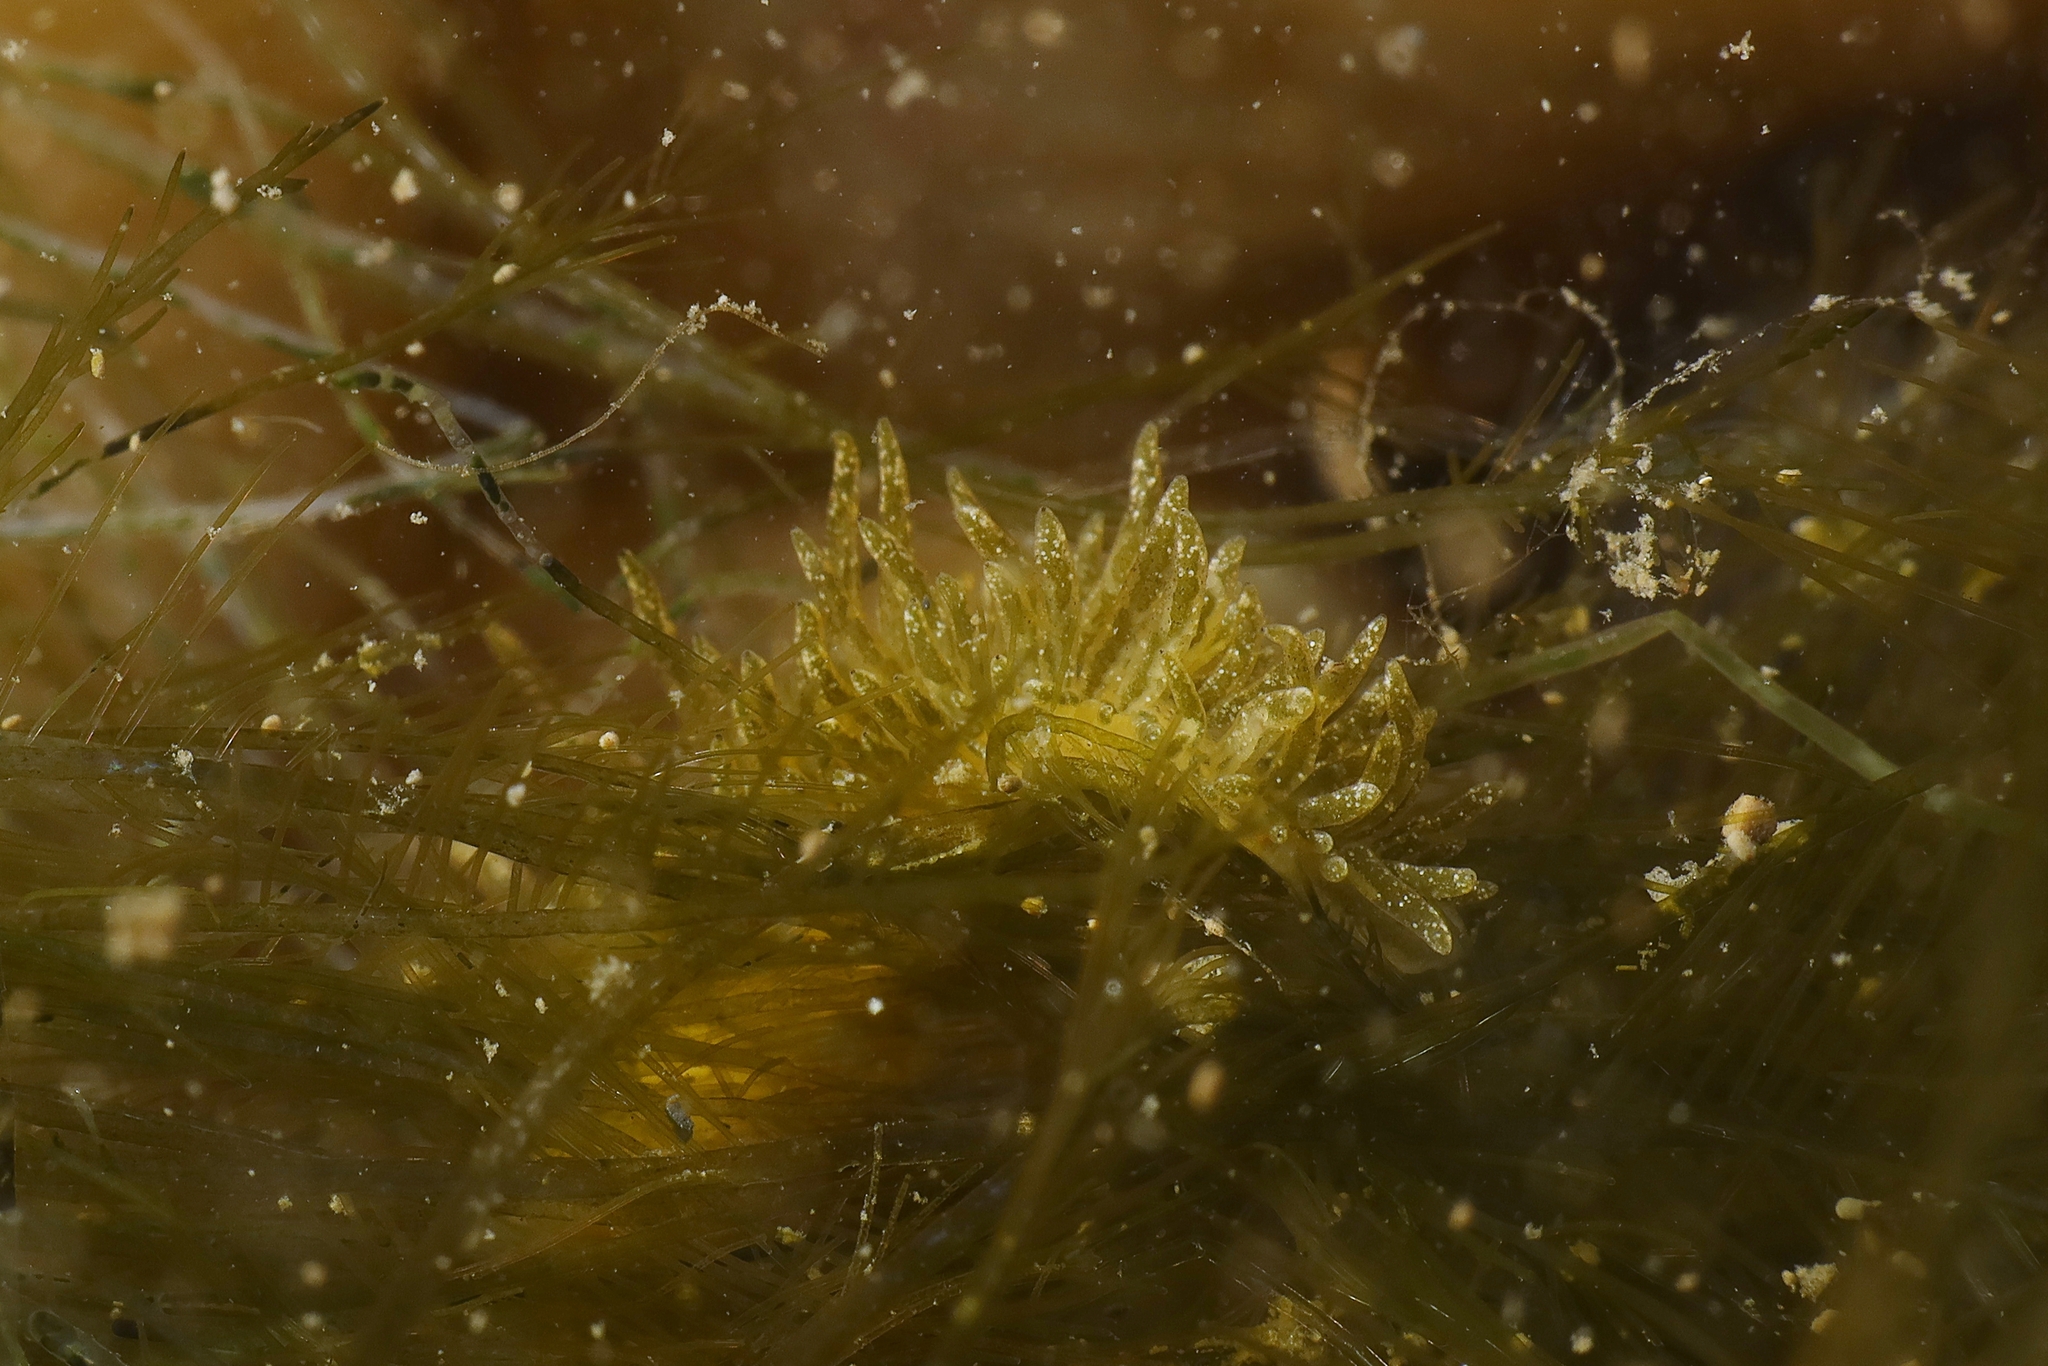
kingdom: Animalia
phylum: Mollusca
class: Gastropoda
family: Limapontiidae
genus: Placida
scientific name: Placida tardyi
